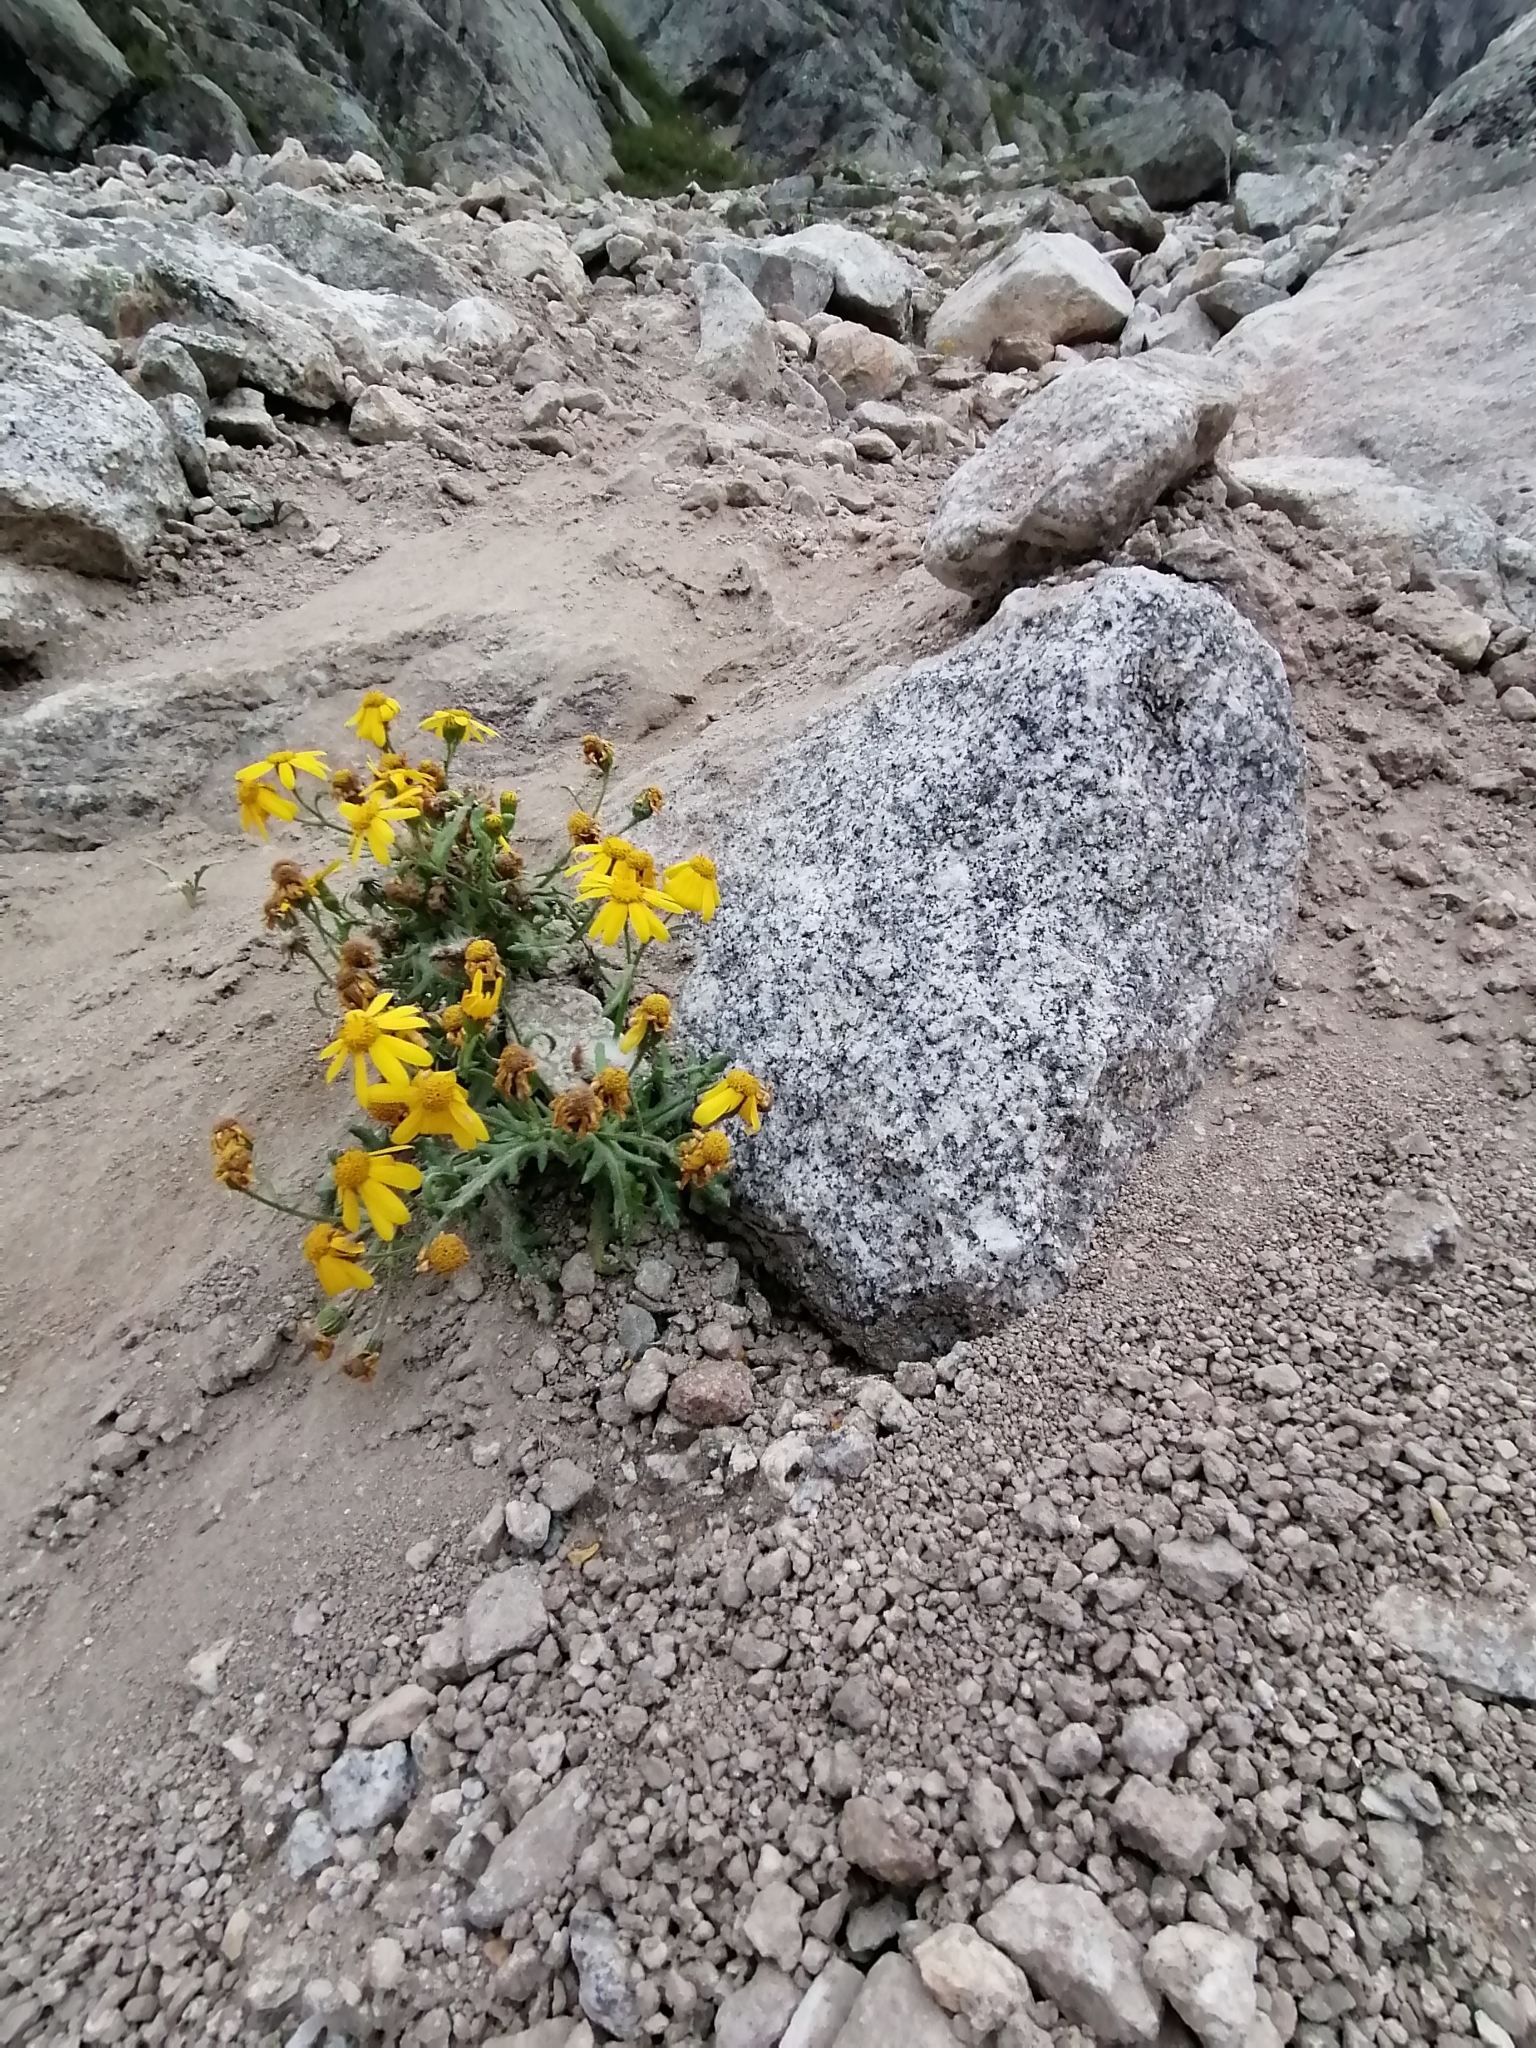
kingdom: Plantae
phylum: Tracheophyta
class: Magnoliopsida
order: Asterales
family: Asteraceae
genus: Senecio
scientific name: Senecio leucanthemifolius
